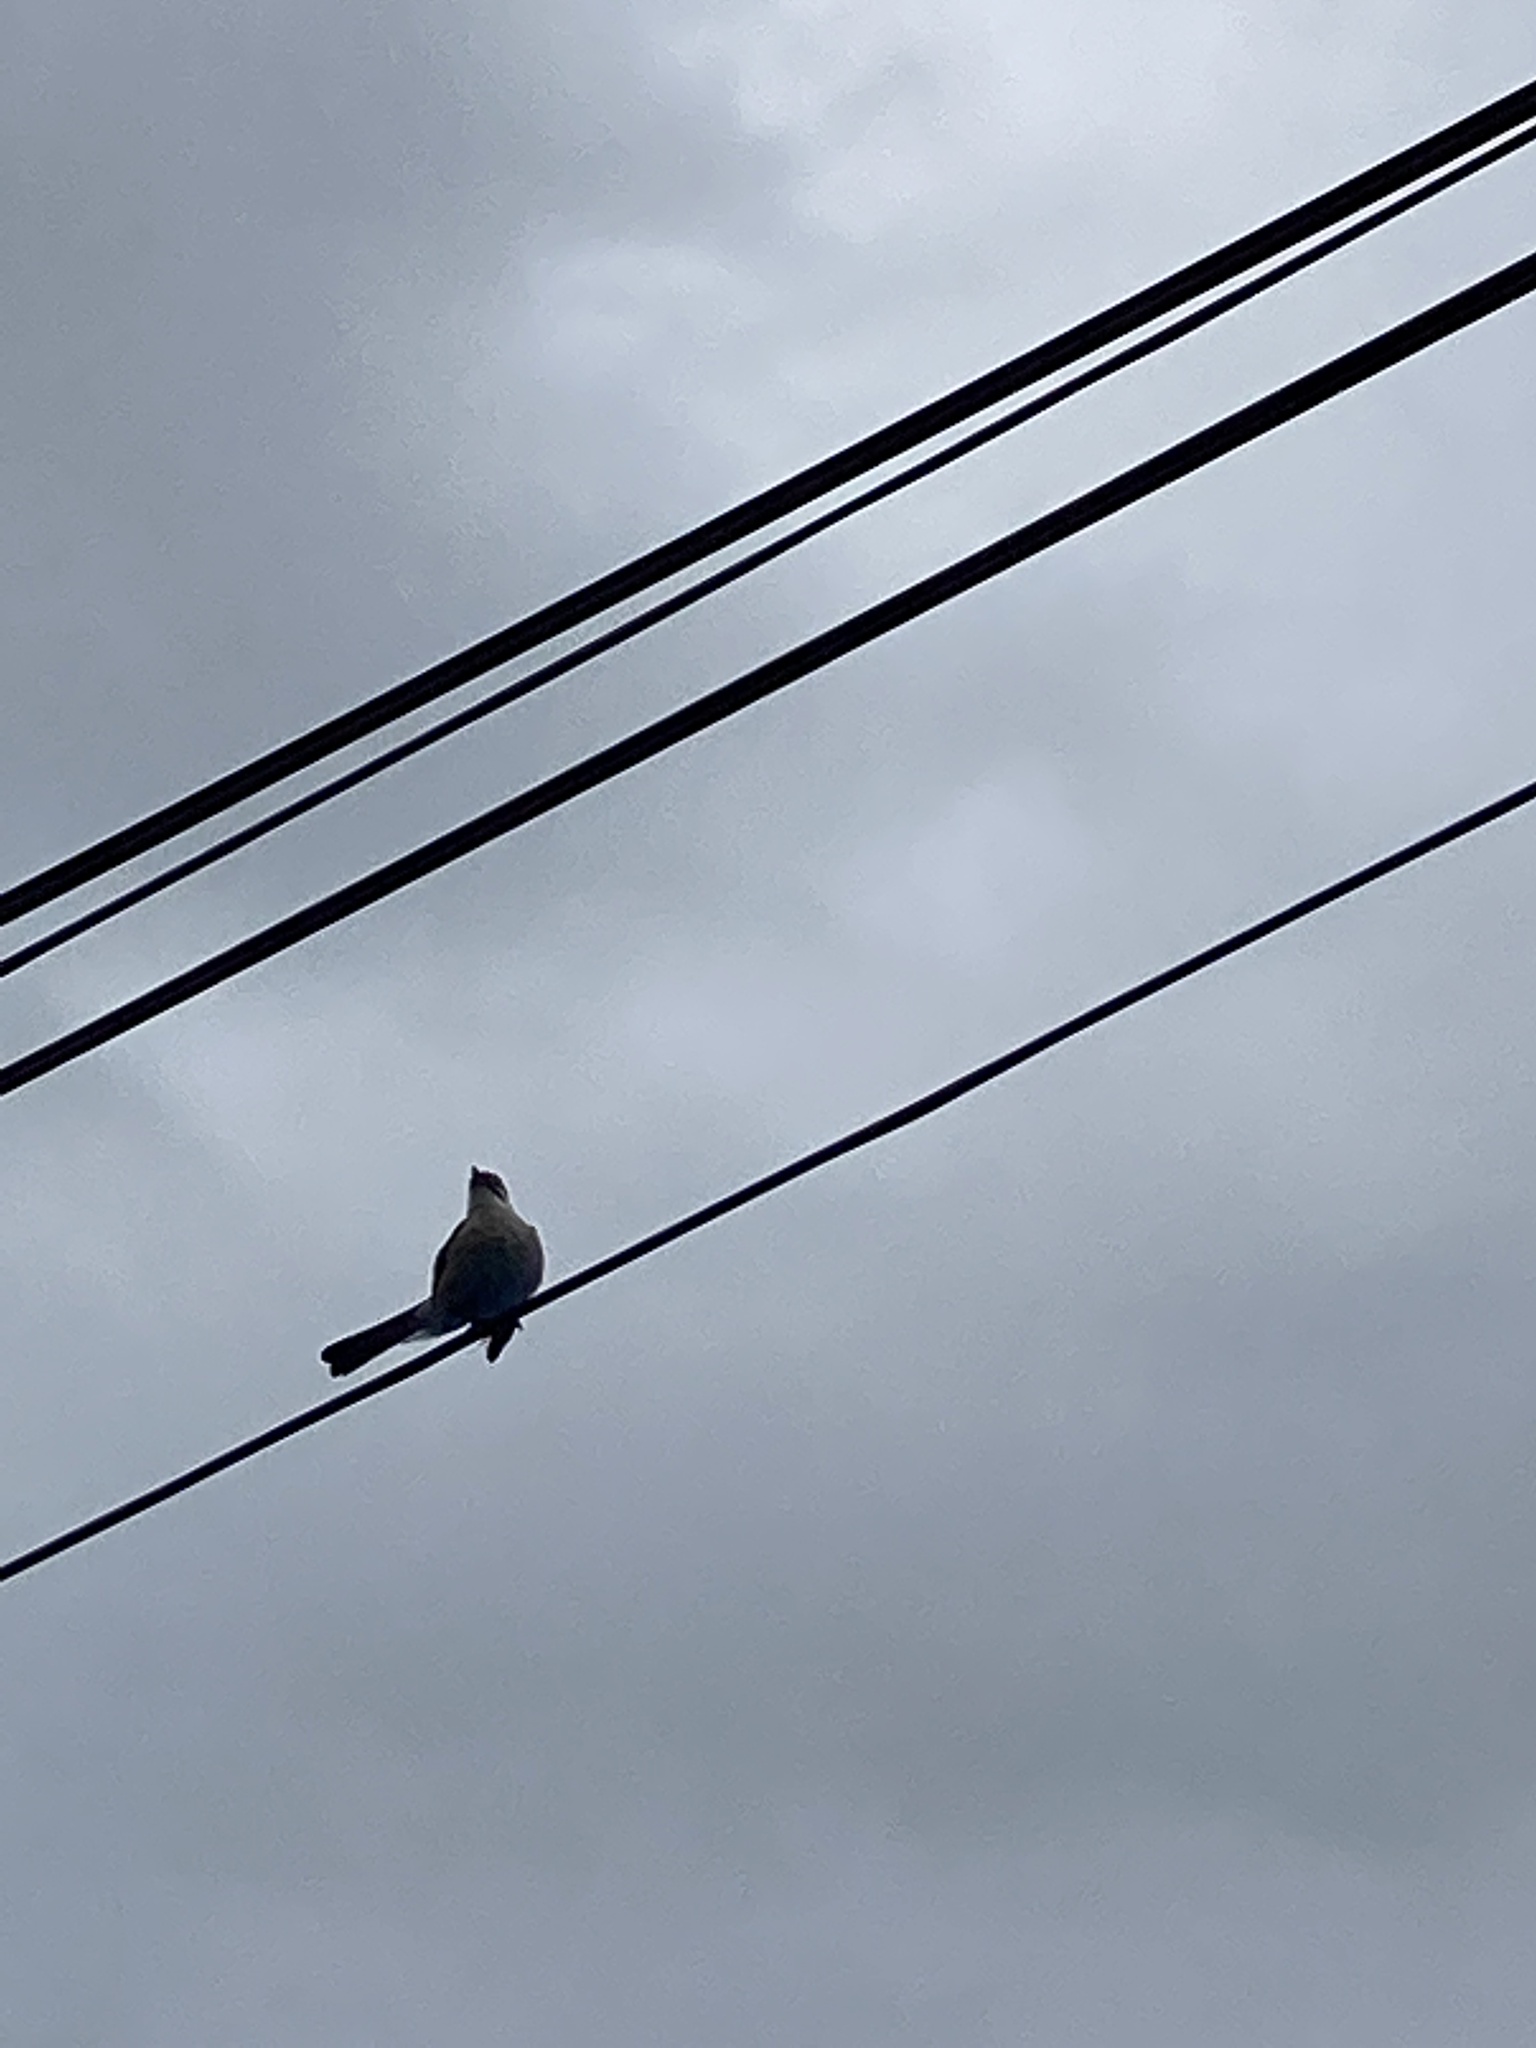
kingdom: Animalia
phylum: Chordata
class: Aves
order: Passeriformes
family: Pycnonotidae
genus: Pycnonotus
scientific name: Pycnonotus taivanus
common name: Styan's bulbul
